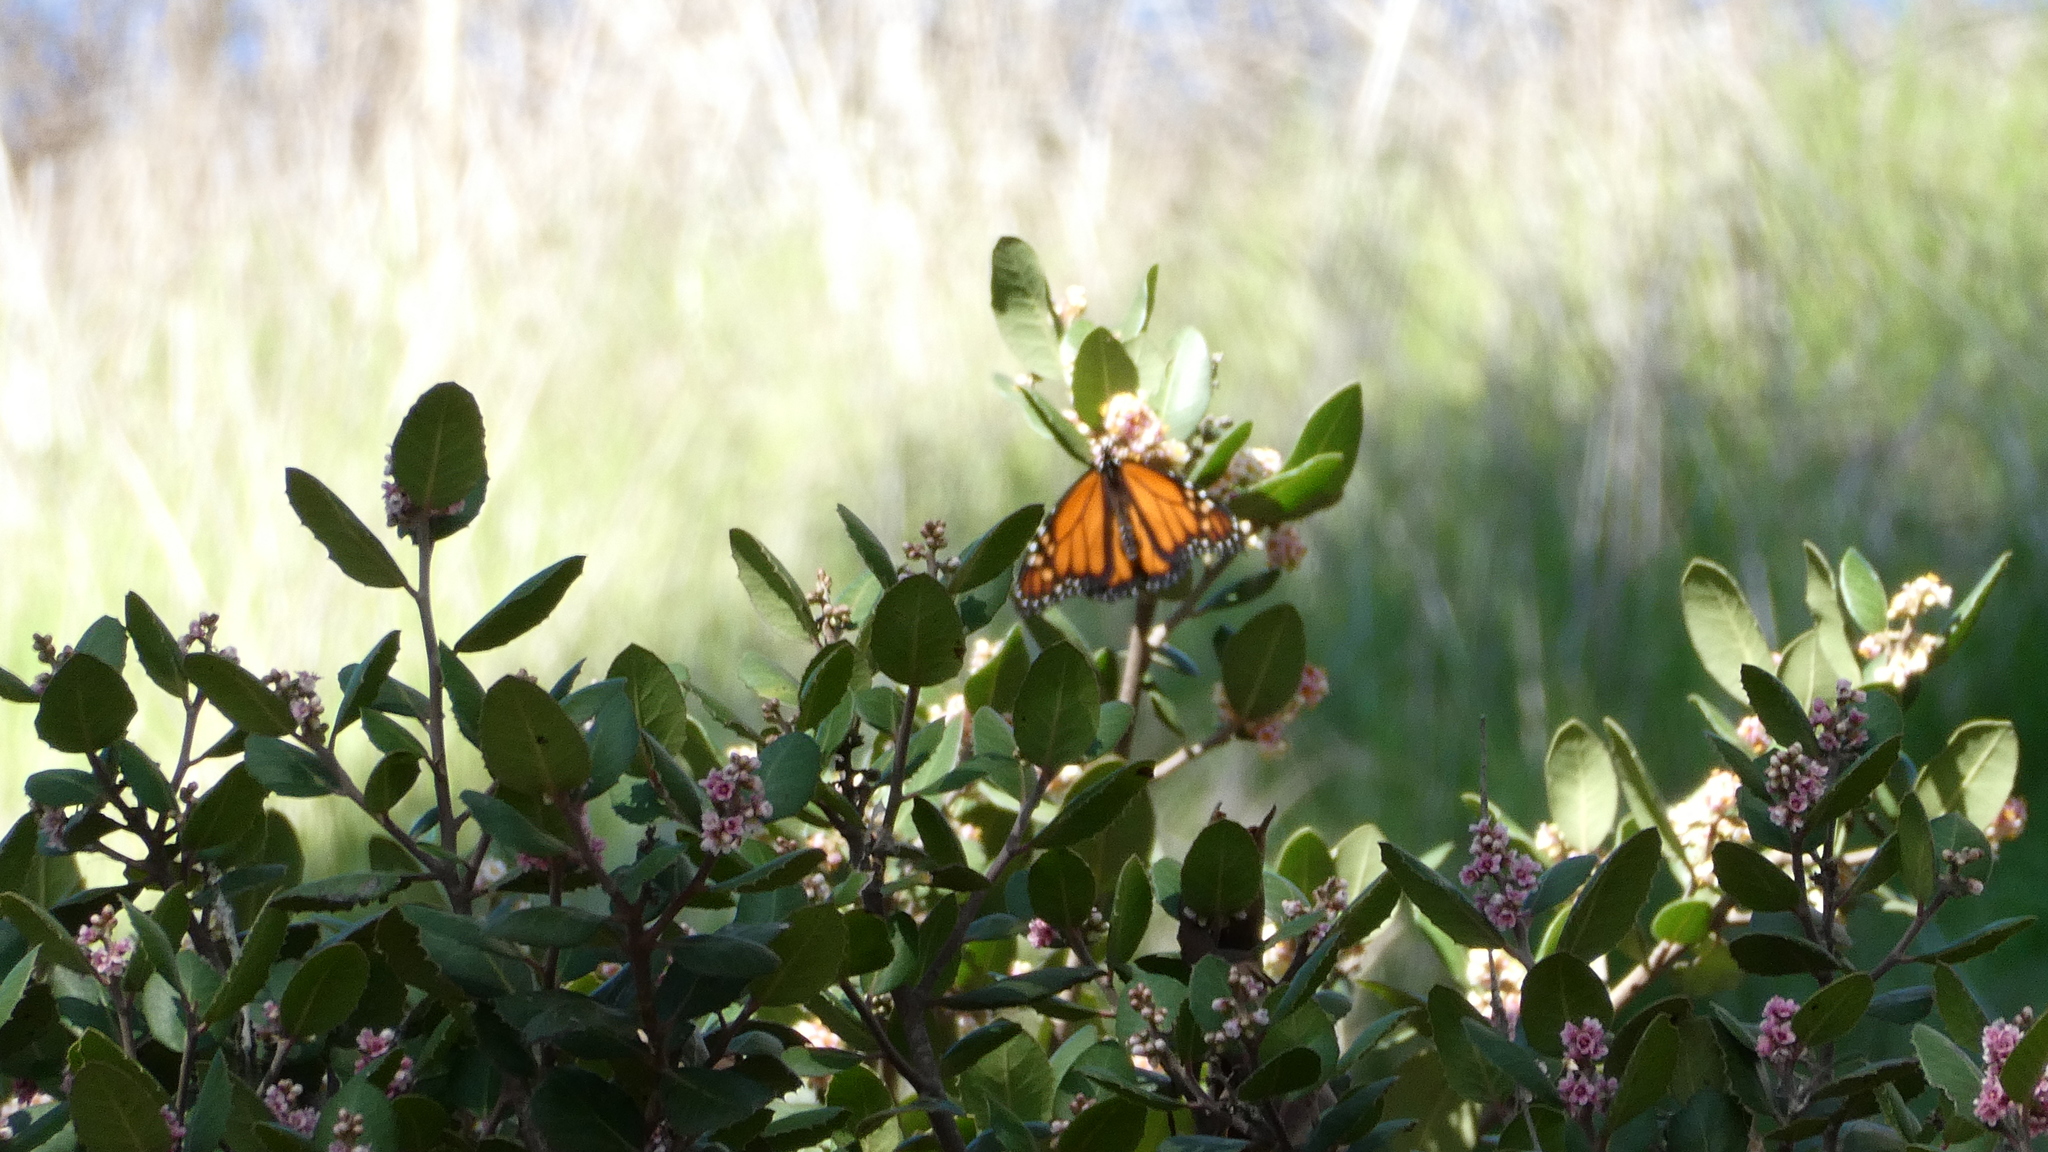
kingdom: Animalia
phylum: Arthropoda
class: Insecta
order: Lepidoptera
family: Nymphalidae
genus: Danaus
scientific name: Danaus plexippus
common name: Monarch
